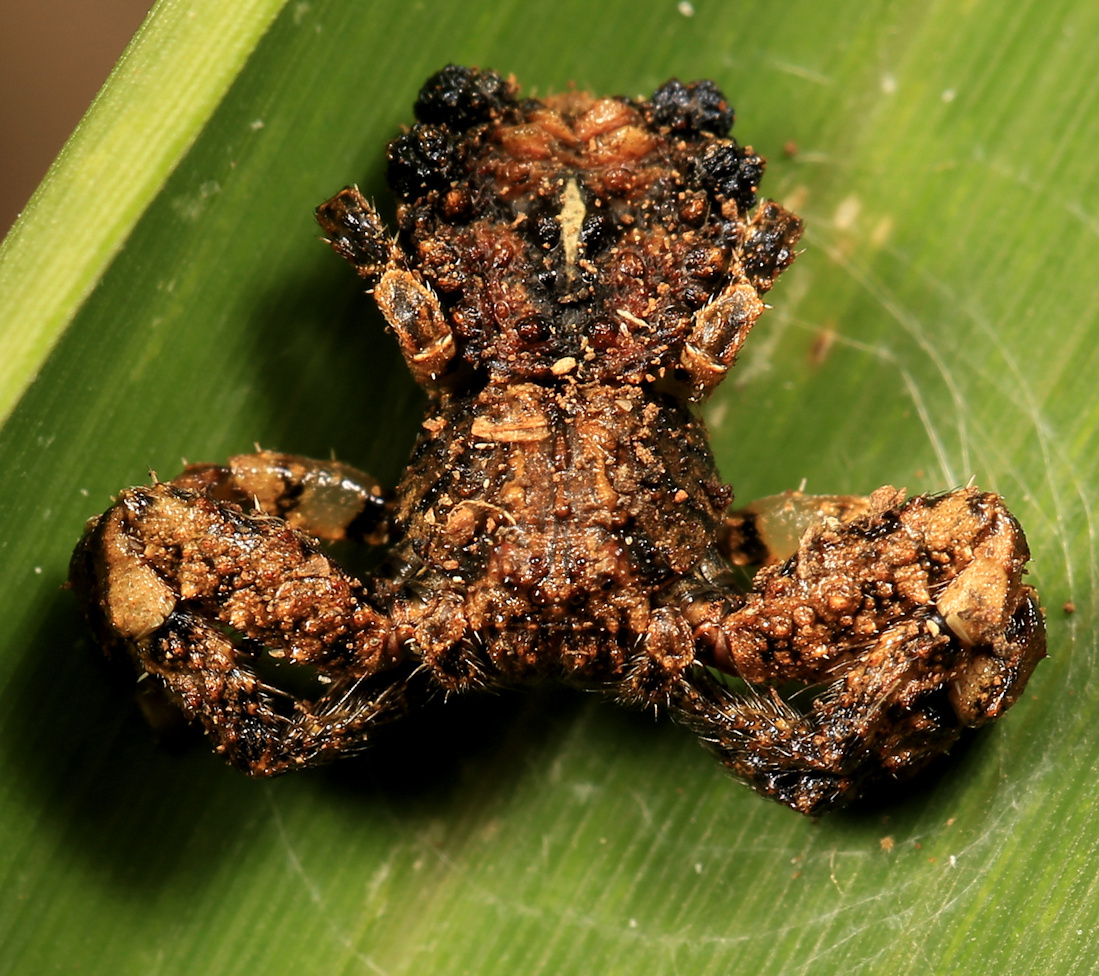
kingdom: Animalia
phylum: Arthropoda
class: Arachnida
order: Araneae
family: Thomisidae
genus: Phrynarachne
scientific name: Phrynarachne rugosa
